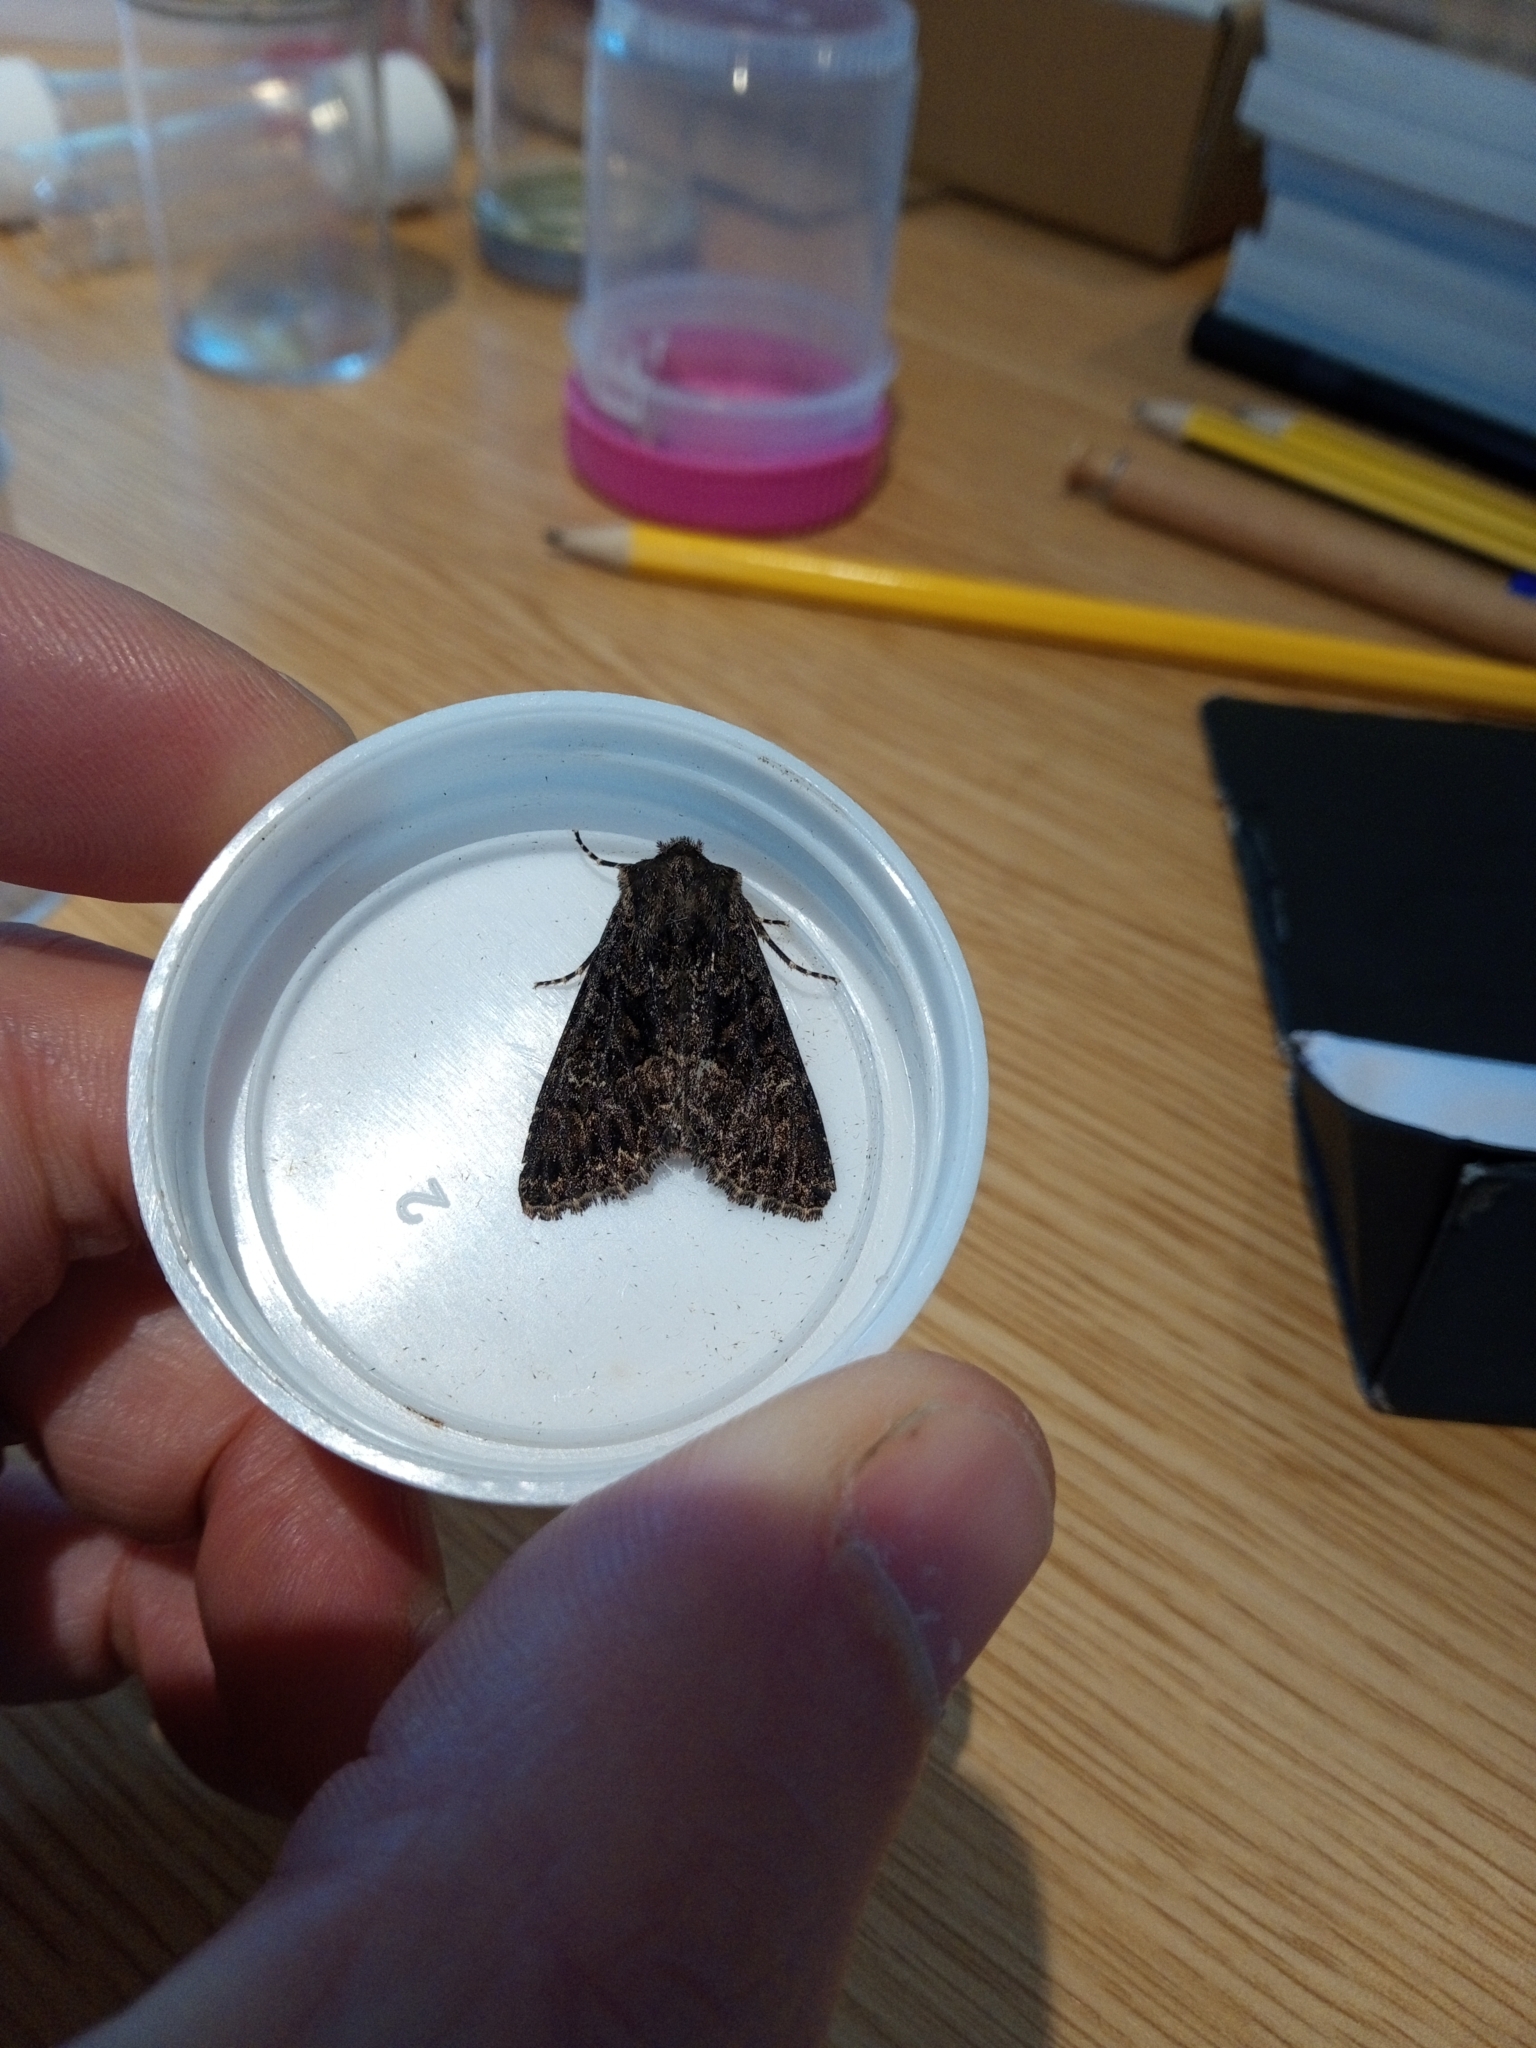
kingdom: Animalia
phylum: Arthropoda
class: Insecta
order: Lepidoptera
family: Noctuidae
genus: Mamestra
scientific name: Mamestra brassicae
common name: Cabbage moth
